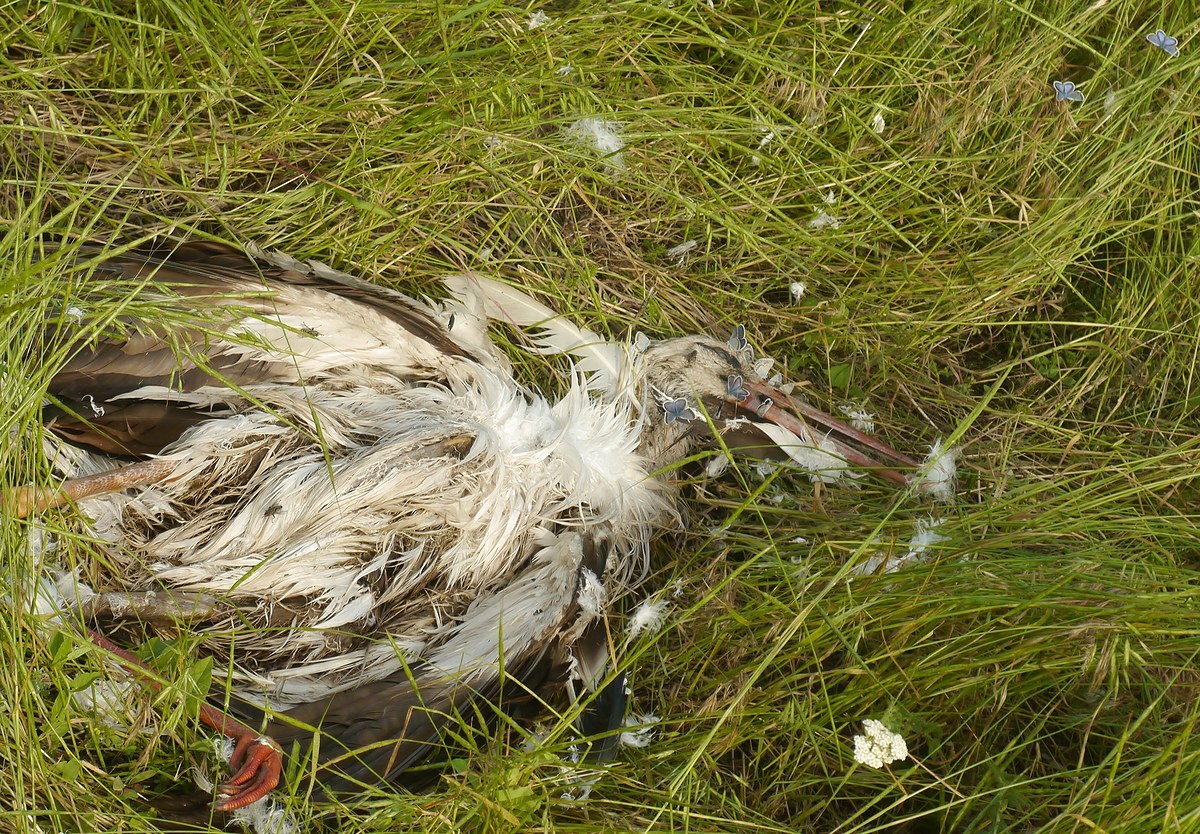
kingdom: Animalia
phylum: Chordata
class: Aves
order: Ciconiiformes
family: Ciconiidae
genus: Ciconia
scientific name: Ciconia ciconia
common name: White stork
